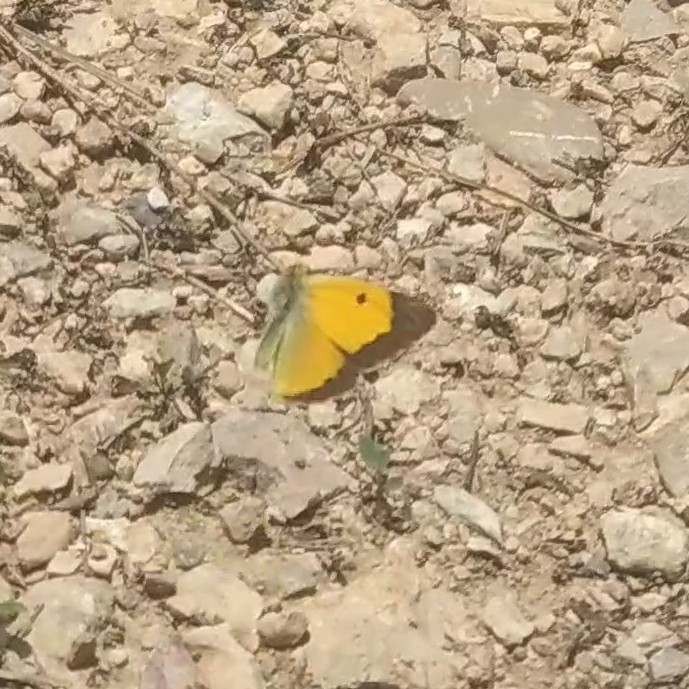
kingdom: Animalia
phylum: Arthropoda
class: Insecta
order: Lepidoptera
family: Pieridae
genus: Colias
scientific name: Colias croceus
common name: Clouded yellow
